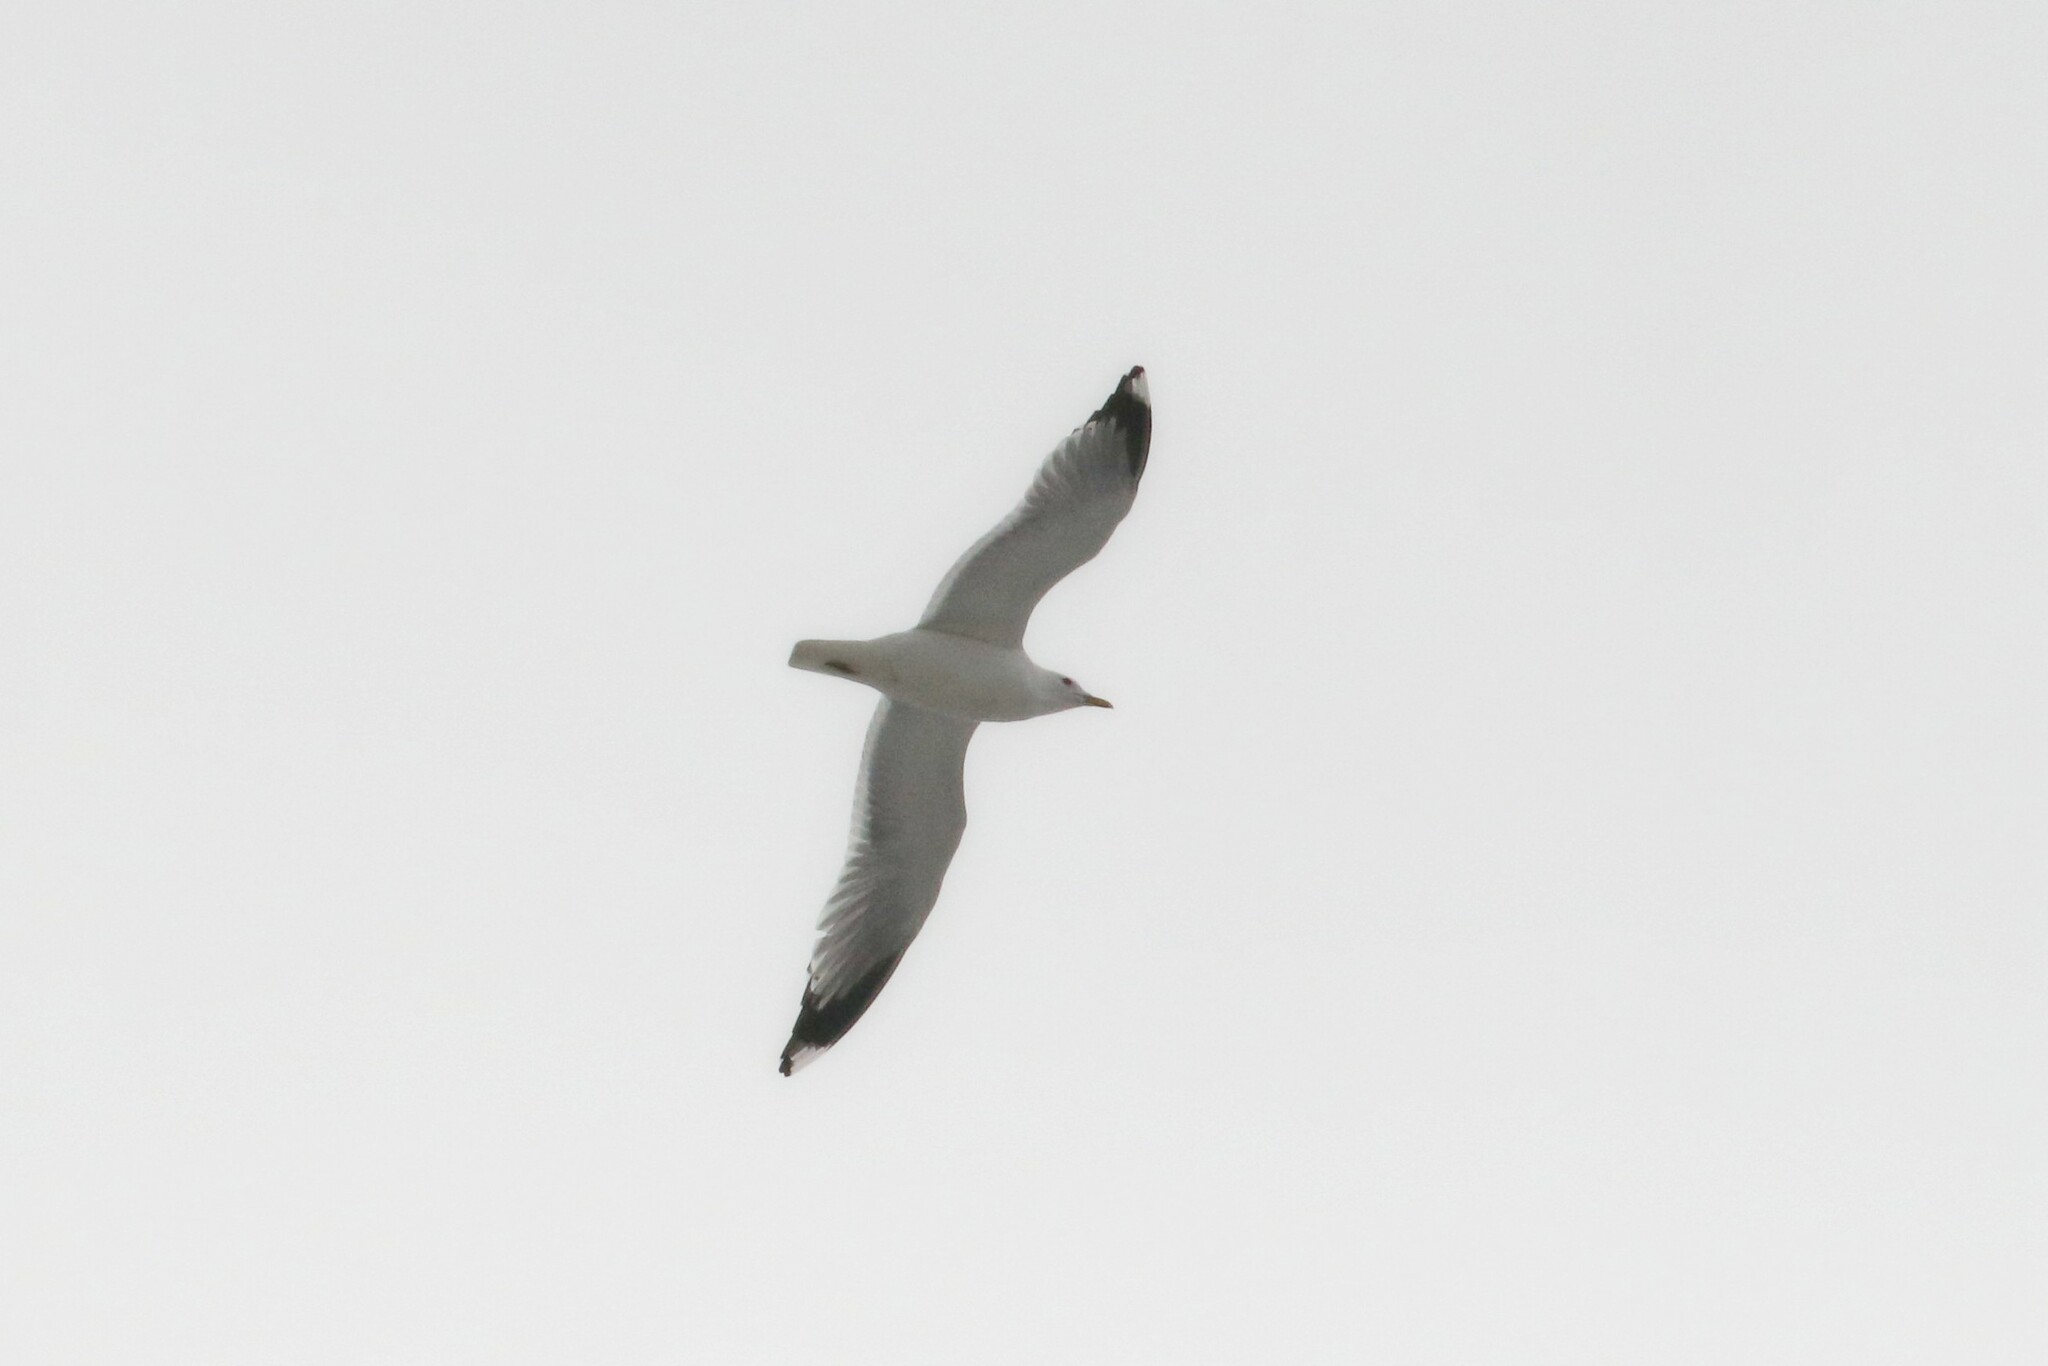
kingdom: Animalia
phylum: Chordata
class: Aves
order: Charadriiformes
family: Laridae
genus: Larus
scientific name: Larus canus
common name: Mew gull
